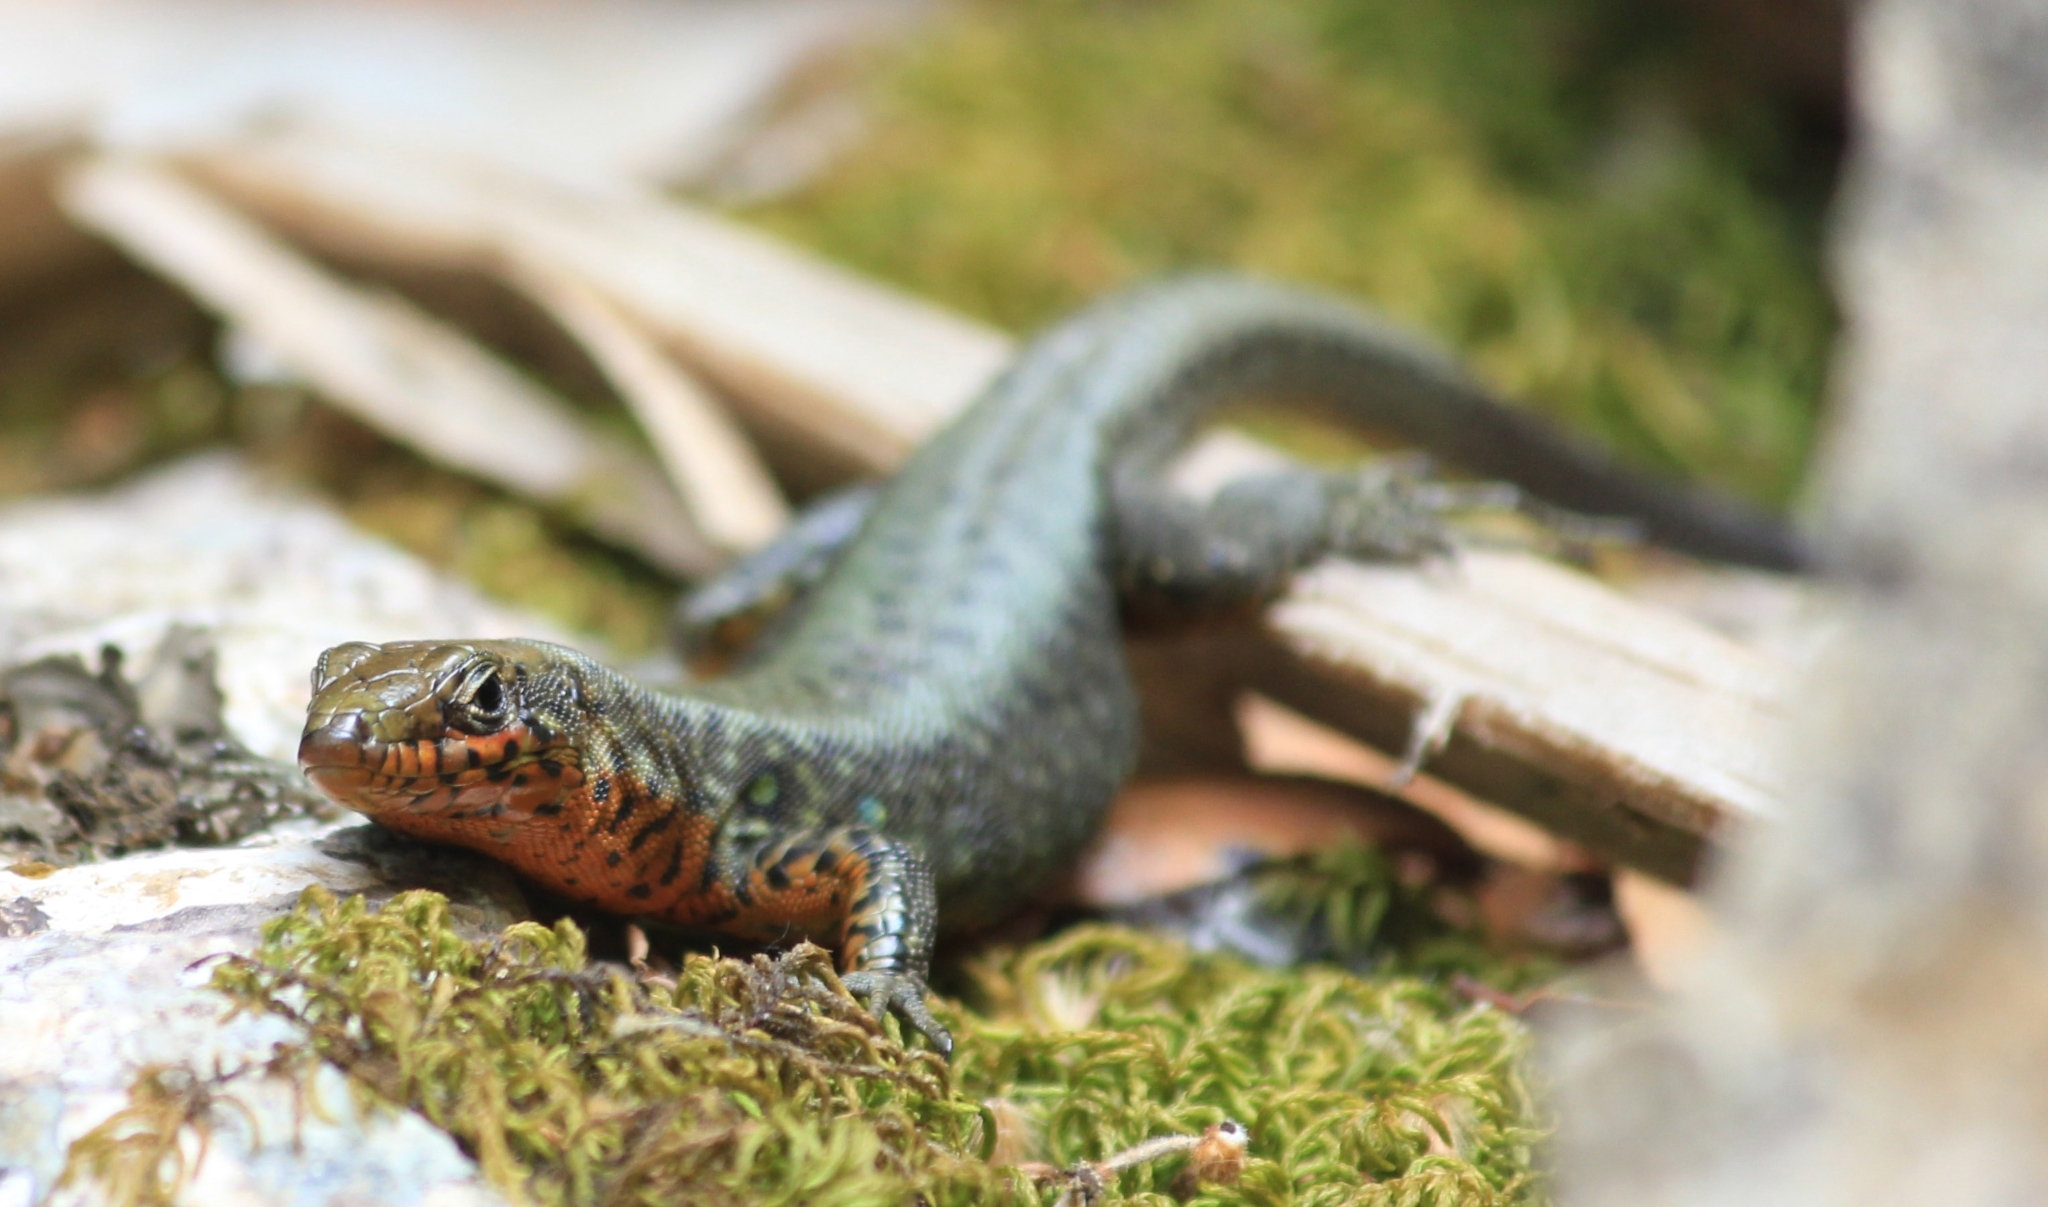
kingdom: Animalia
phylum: Chordata
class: Squamata
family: Lacertidae
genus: Hellenolacerta
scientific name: Hellenolacerta graeca
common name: Greek rock lizard
